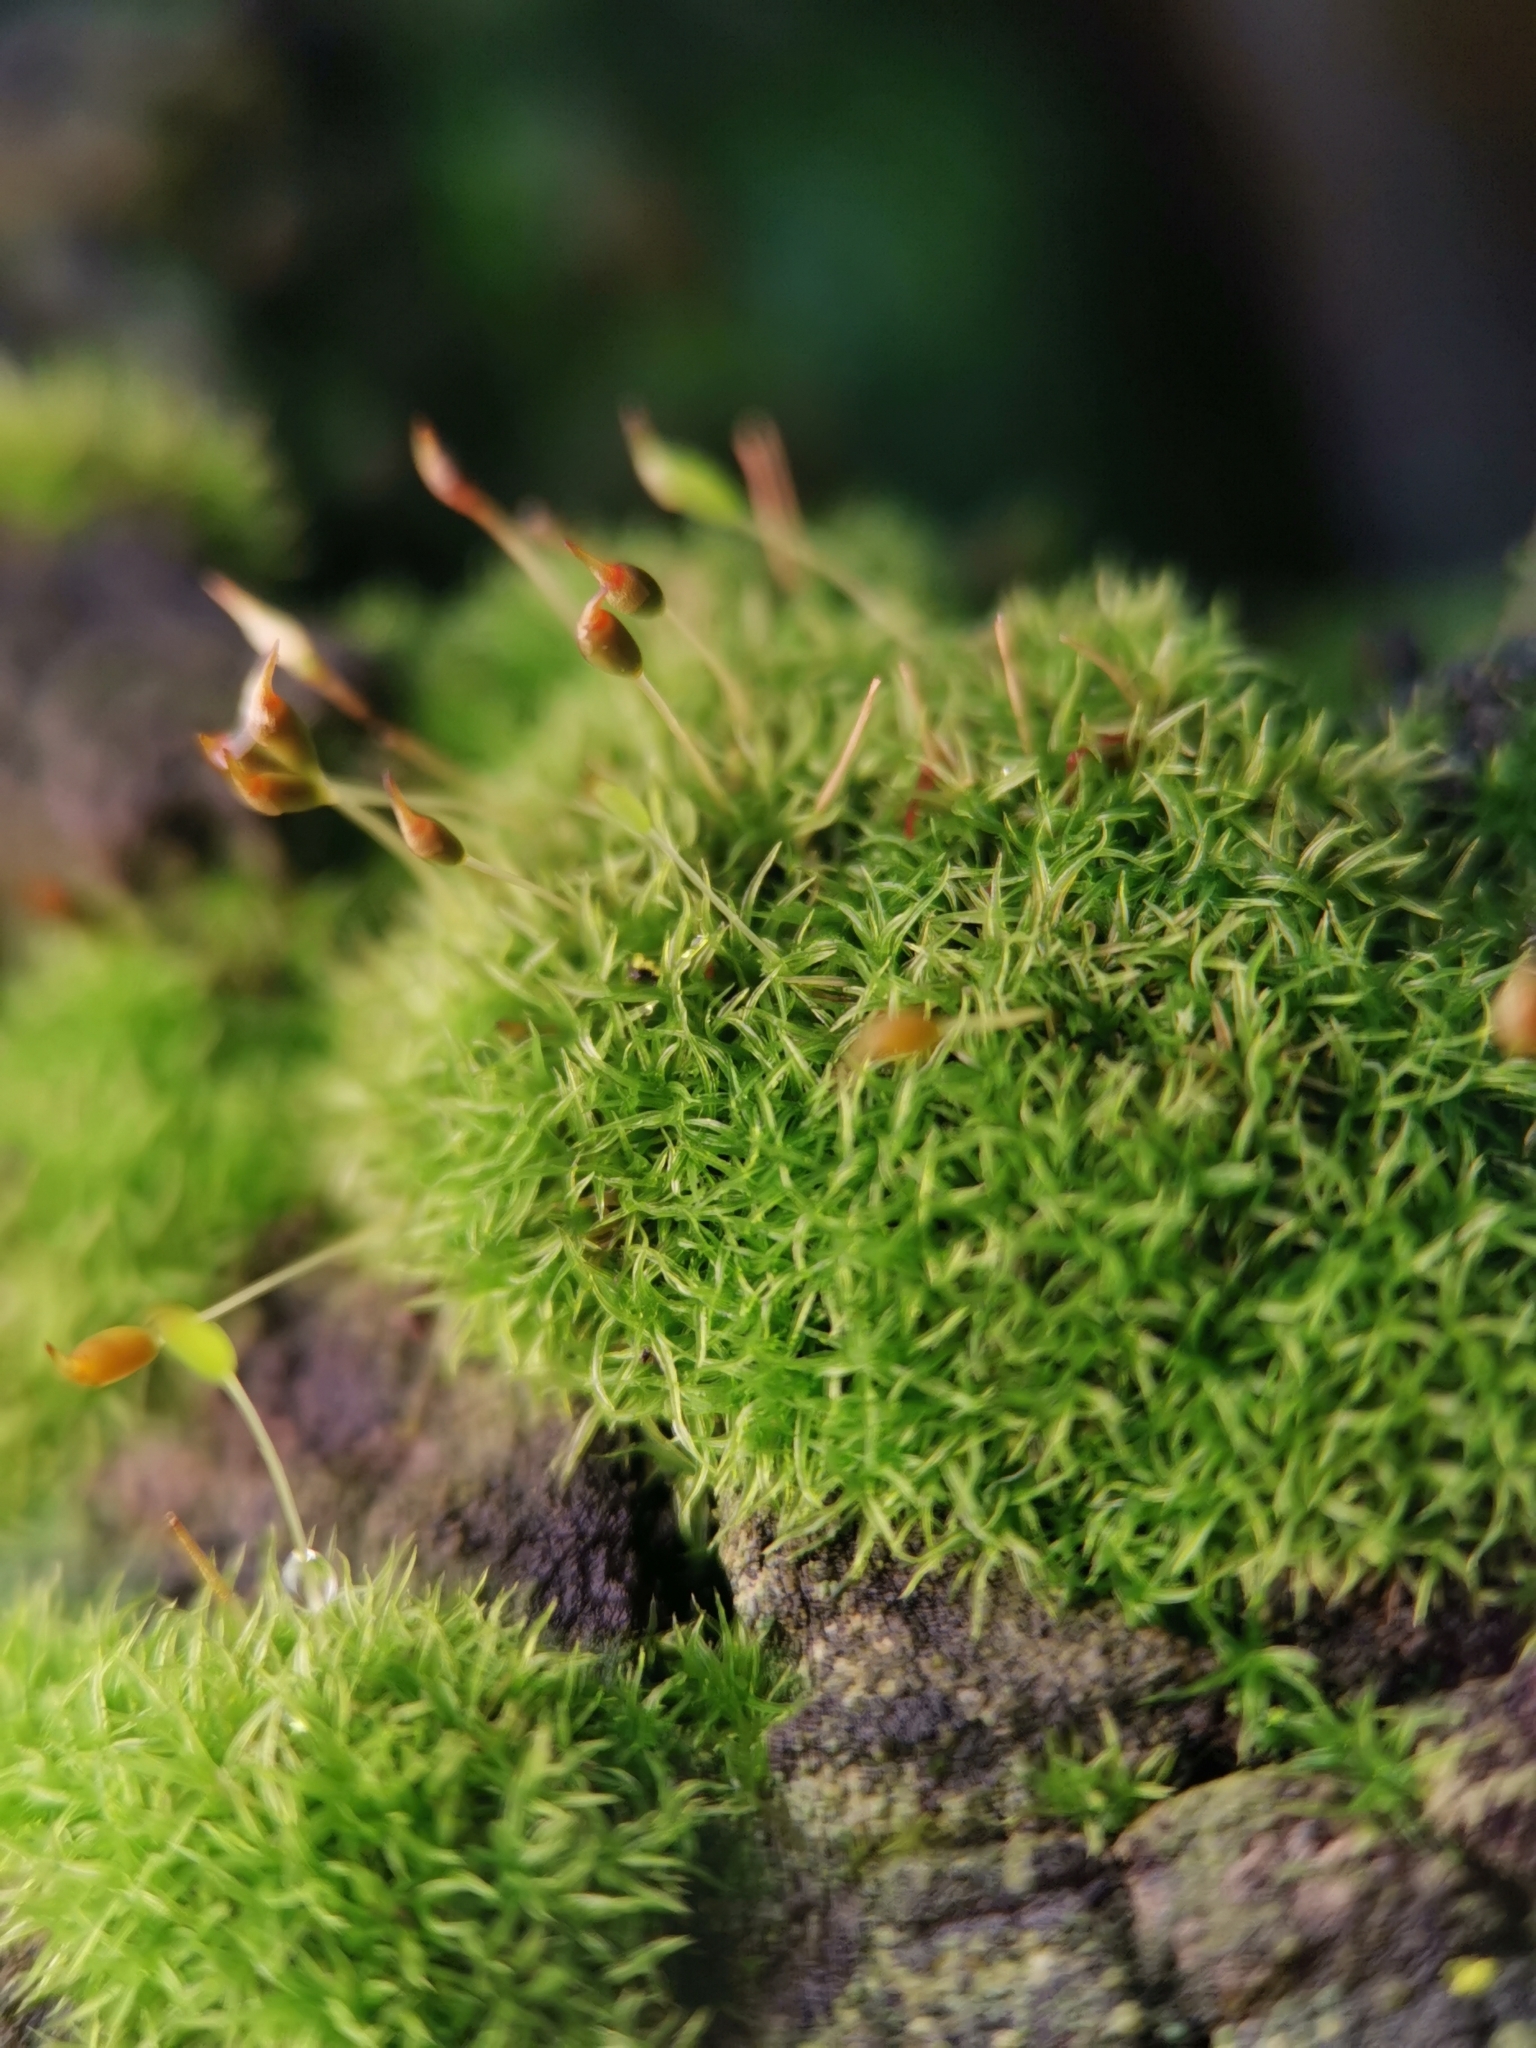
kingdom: Plantae
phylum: Bryophyta
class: Bryopsida
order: Dicranales
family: Rhabdoweisiaceae
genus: Dicranoweisia
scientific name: Dicranoweisia cirrata
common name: Common pincushion
